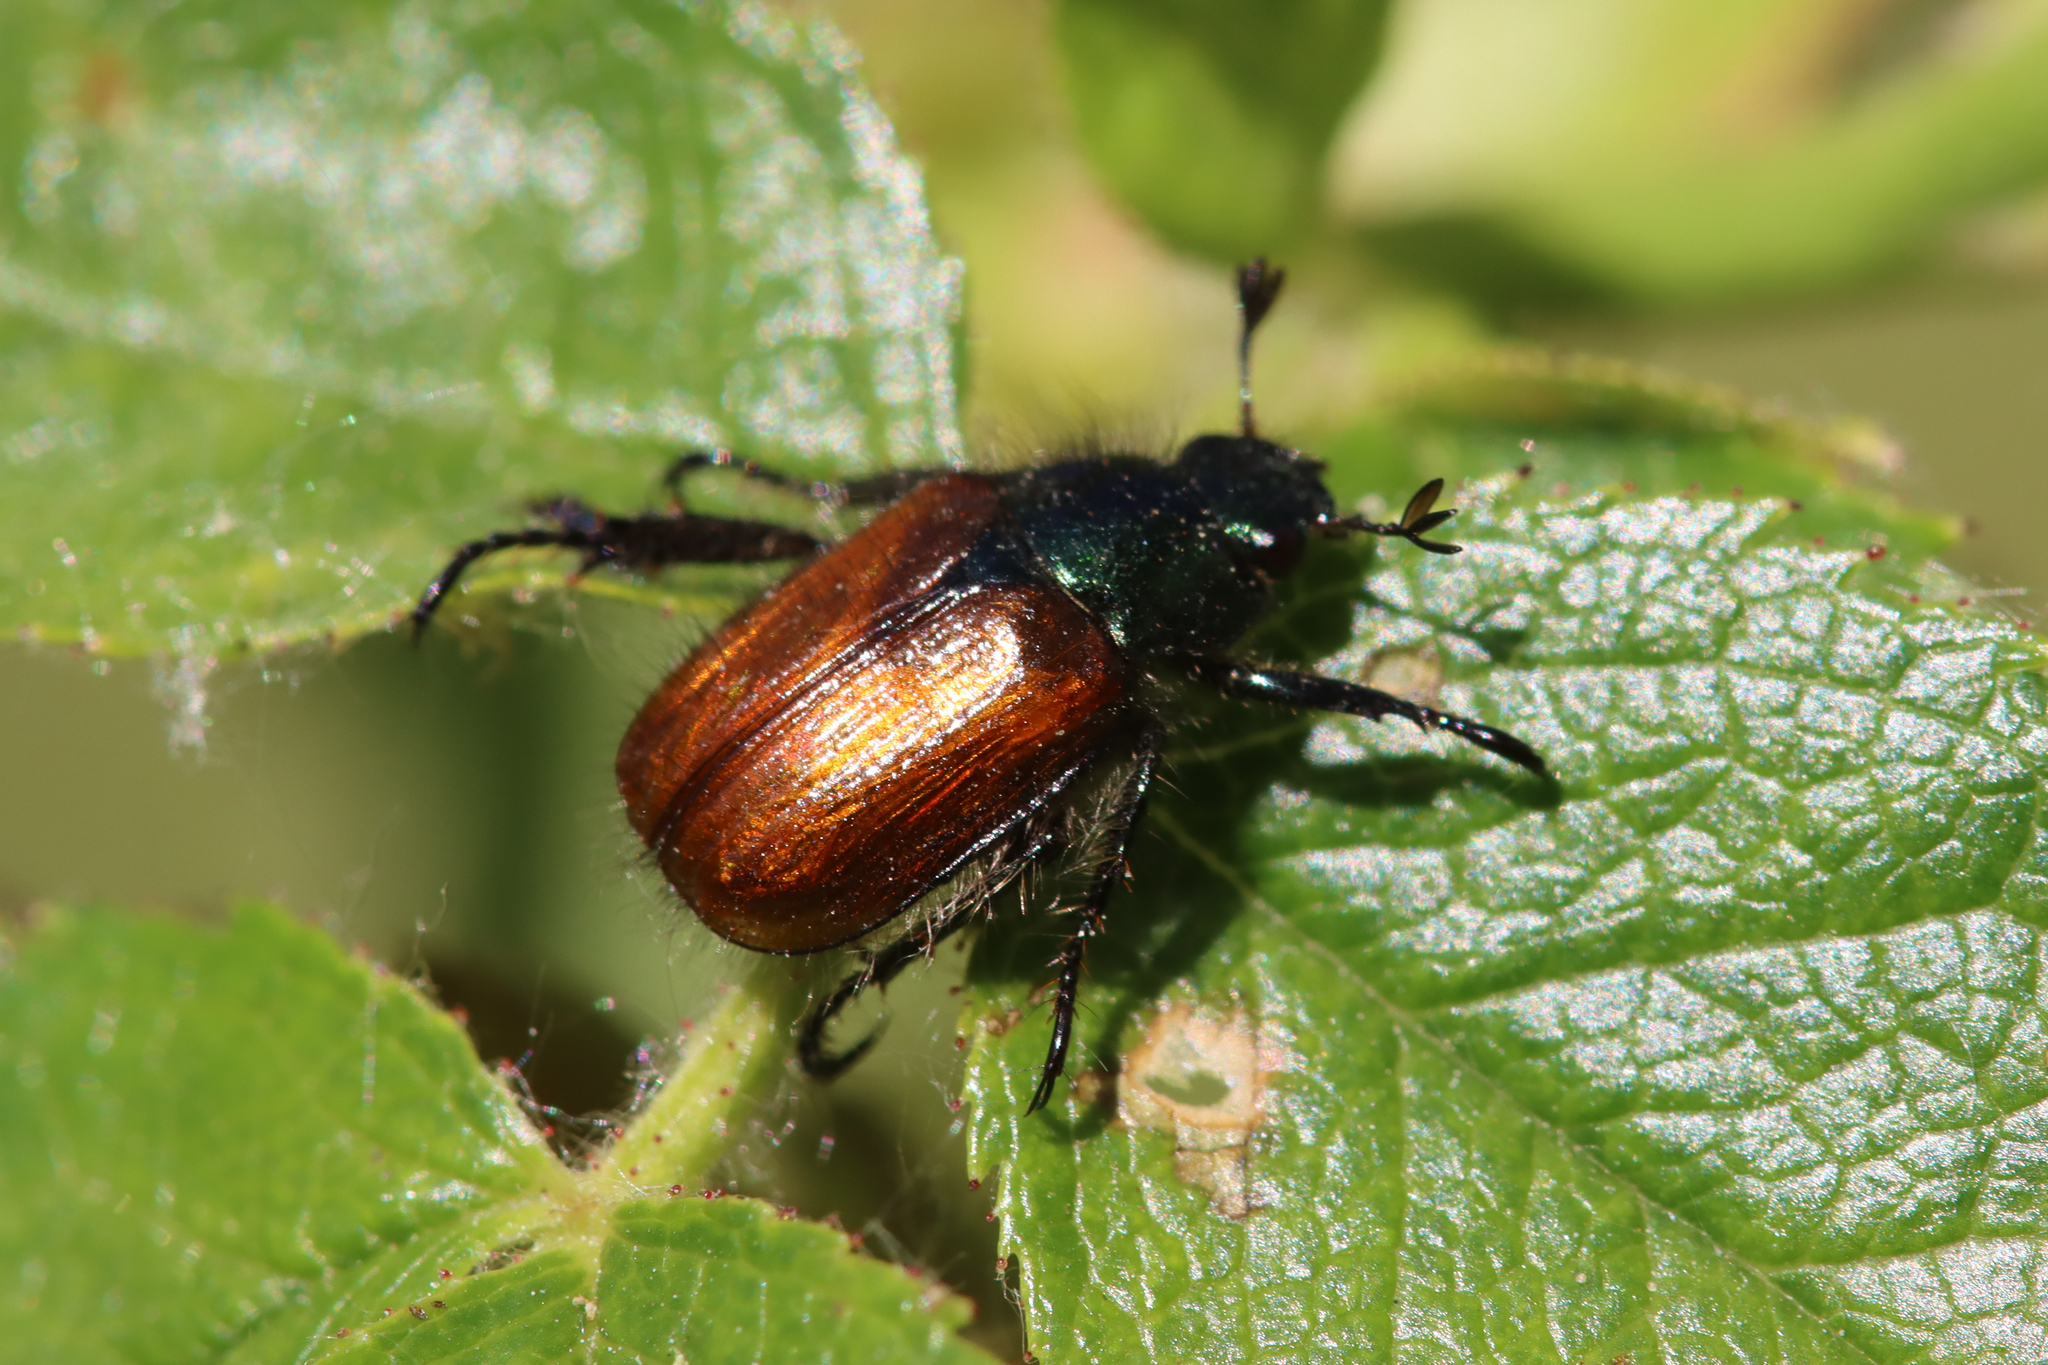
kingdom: Animalia
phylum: Arthropoda
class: Insecta
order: Coleoptera
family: Scarabaeidae
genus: Phyllopertha
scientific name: Phyllopertha horticola
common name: Garden chafer
